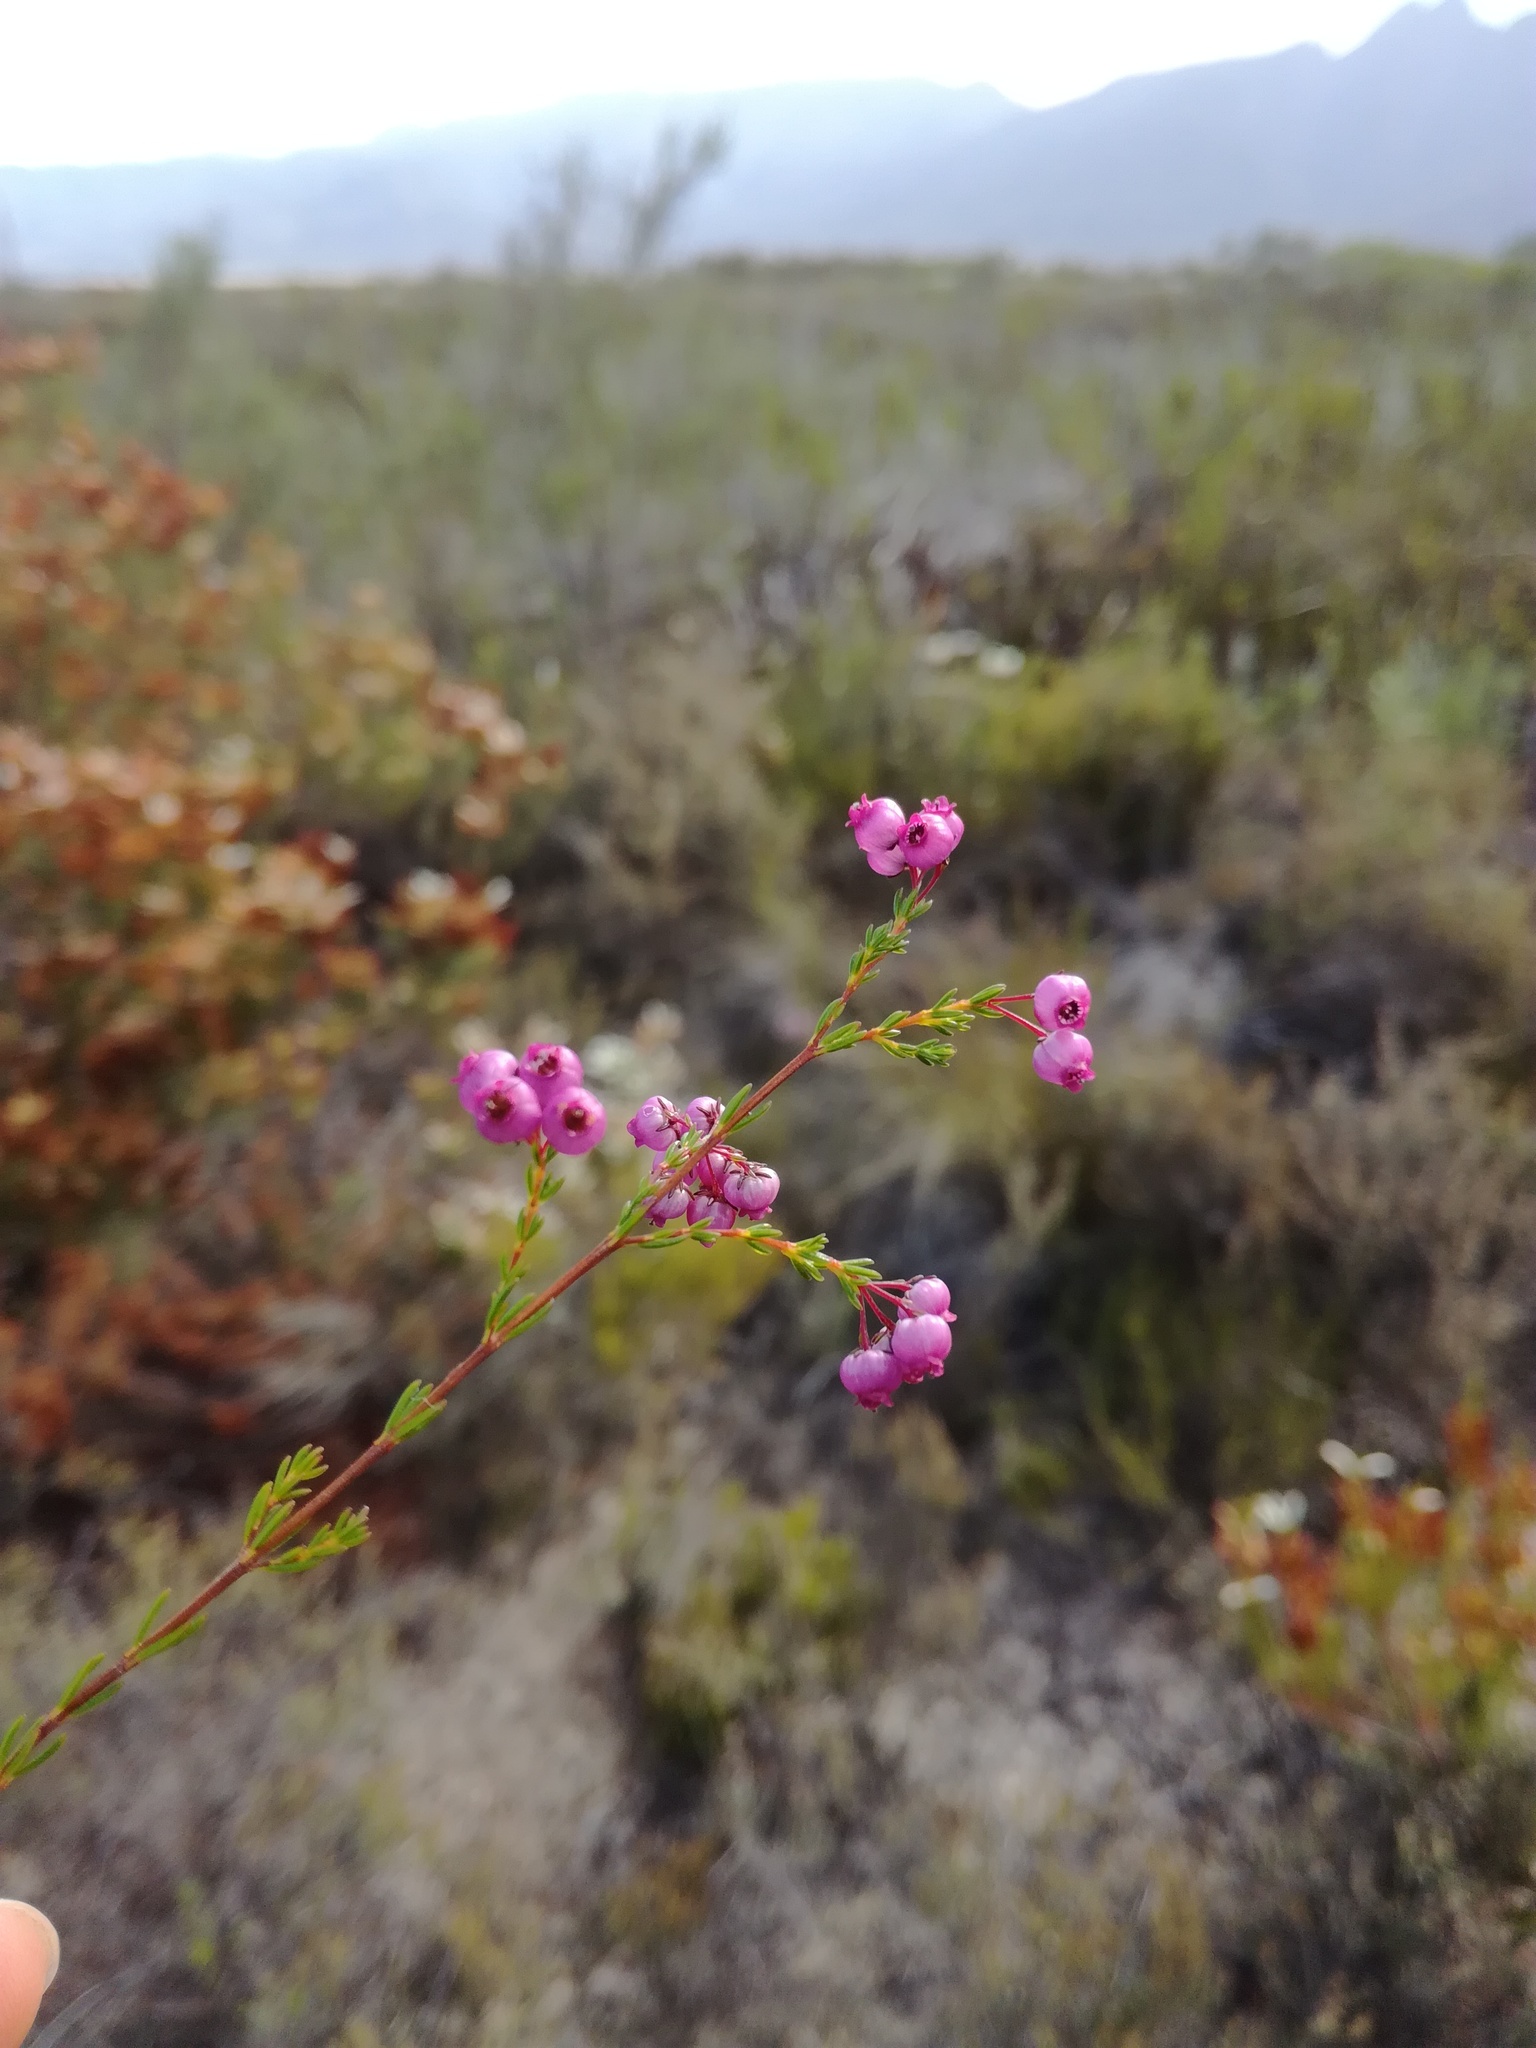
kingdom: Plantae
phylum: Tracheophyta
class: Magnoliopsida
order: Ericales
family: Ericaceae
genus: Erica
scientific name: Erica multumbellifera
